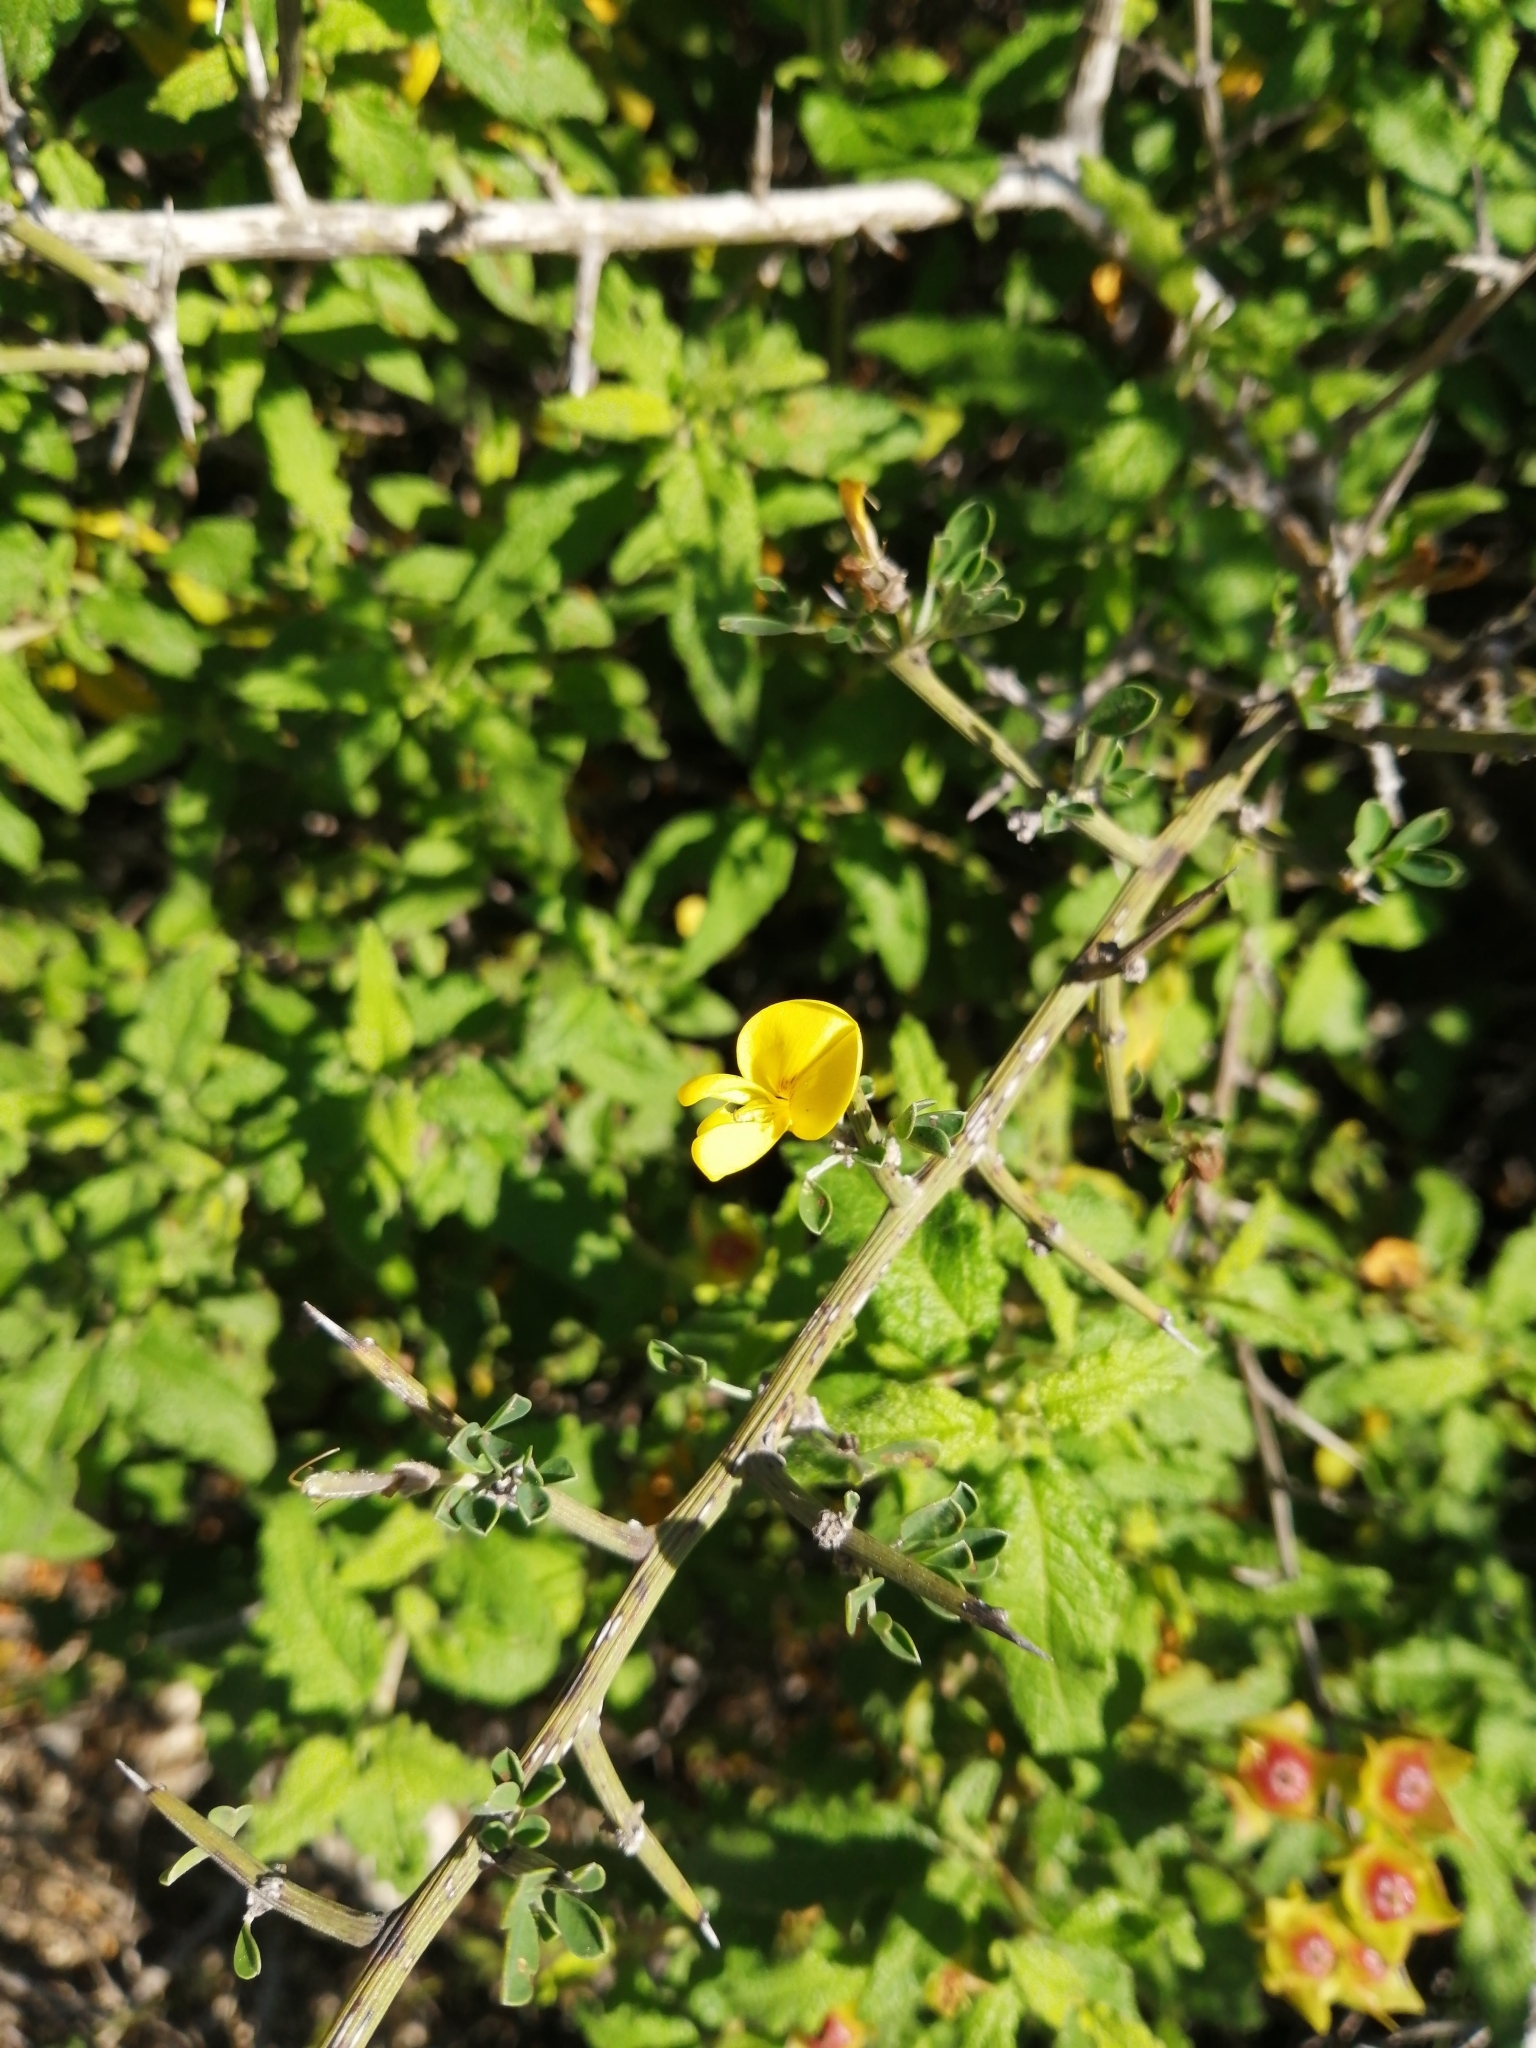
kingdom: Plantae
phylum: Tracheophyta
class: Magnoliopsida
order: Fabales
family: Fabaceae
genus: Calicotome
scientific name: Calicotome villosa
